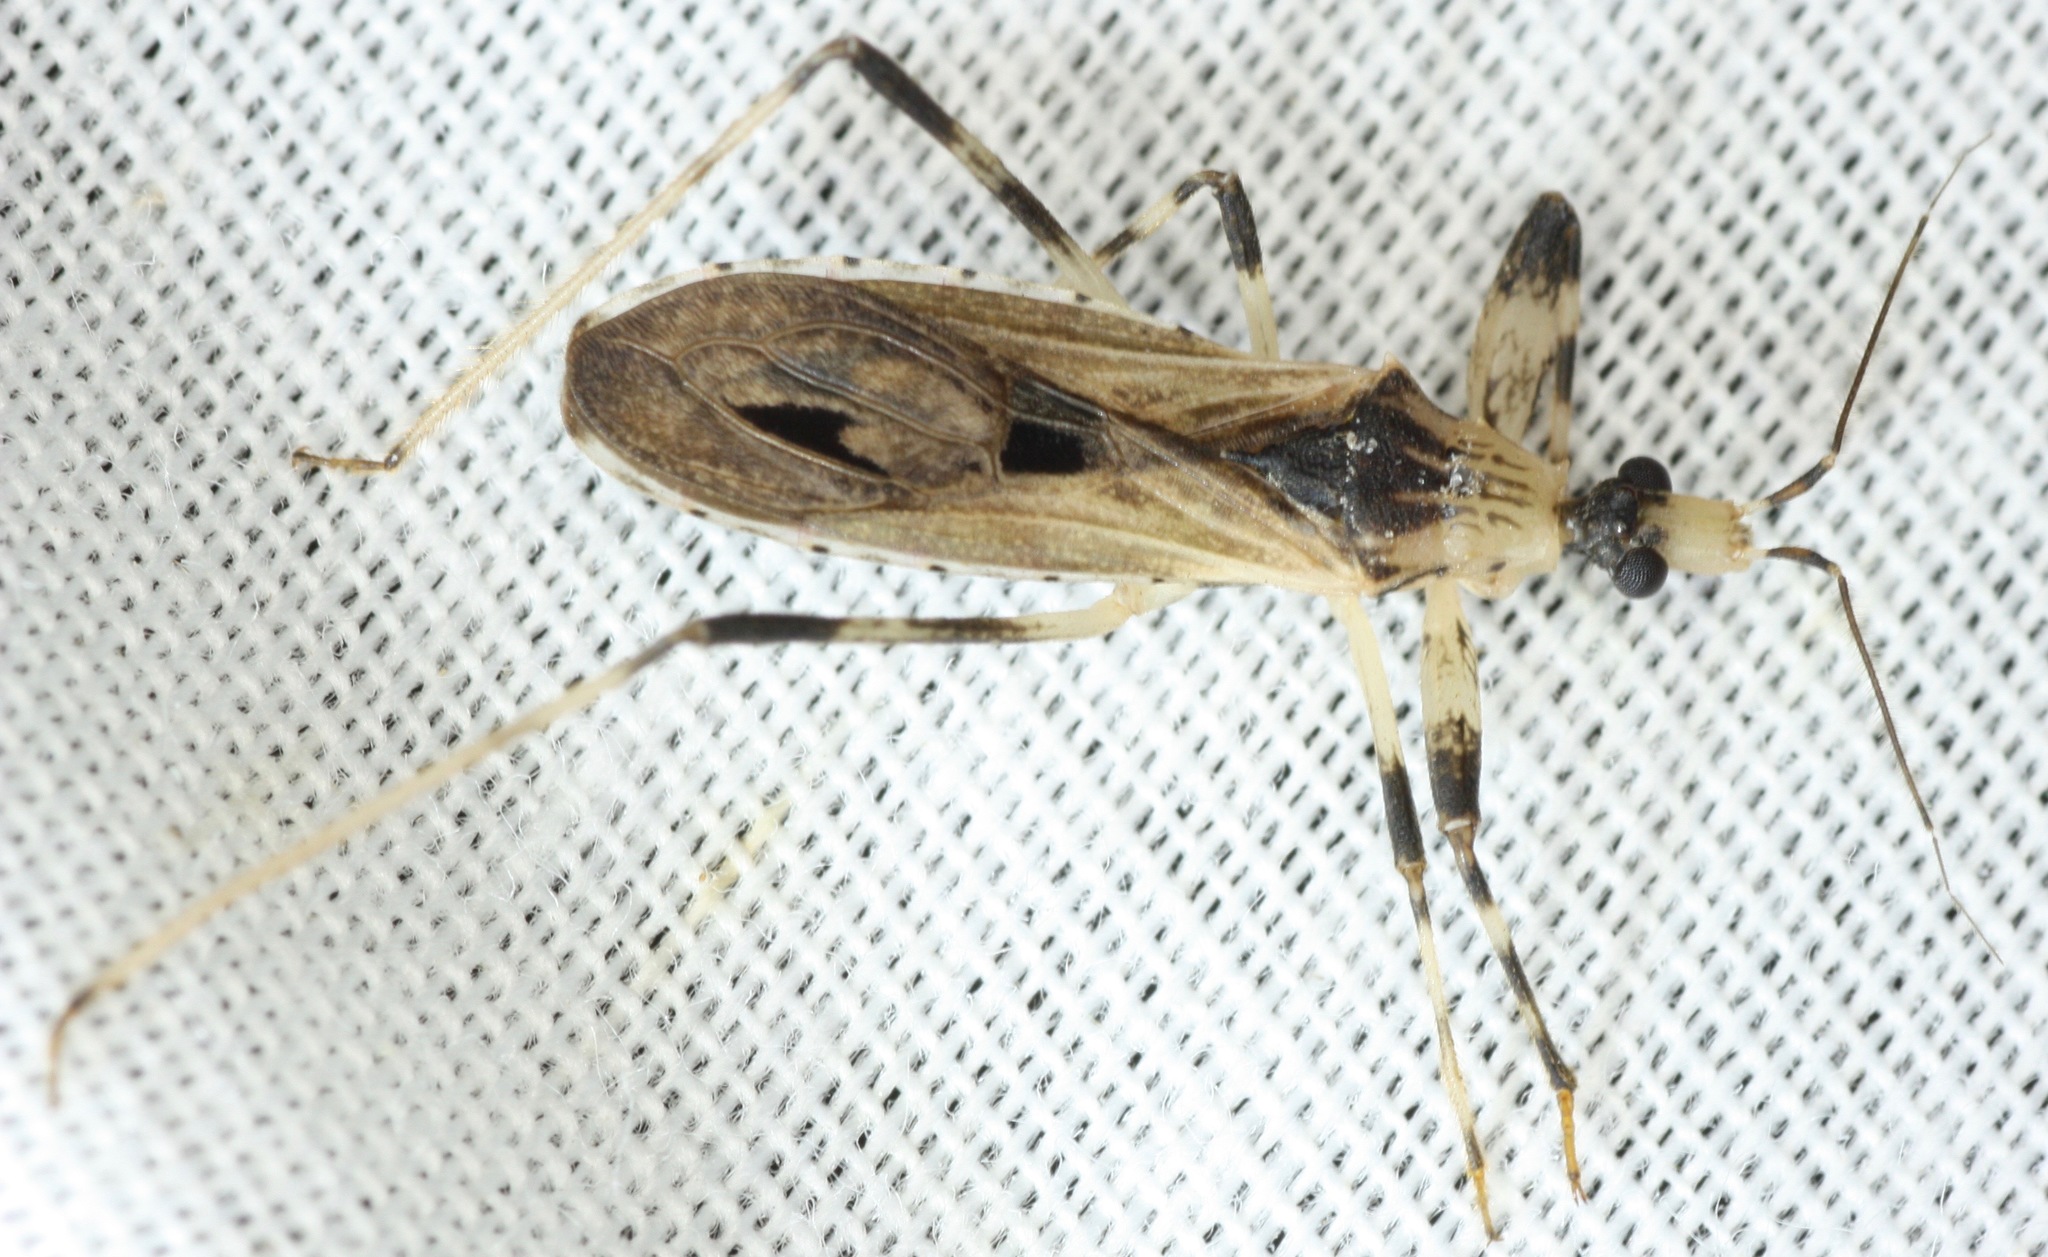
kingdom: Animalia
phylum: Arthropoda
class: Insecta
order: Hemiptera
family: Reduviidae
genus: Oncocephalus
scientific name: Oncocephalus geniculatus
